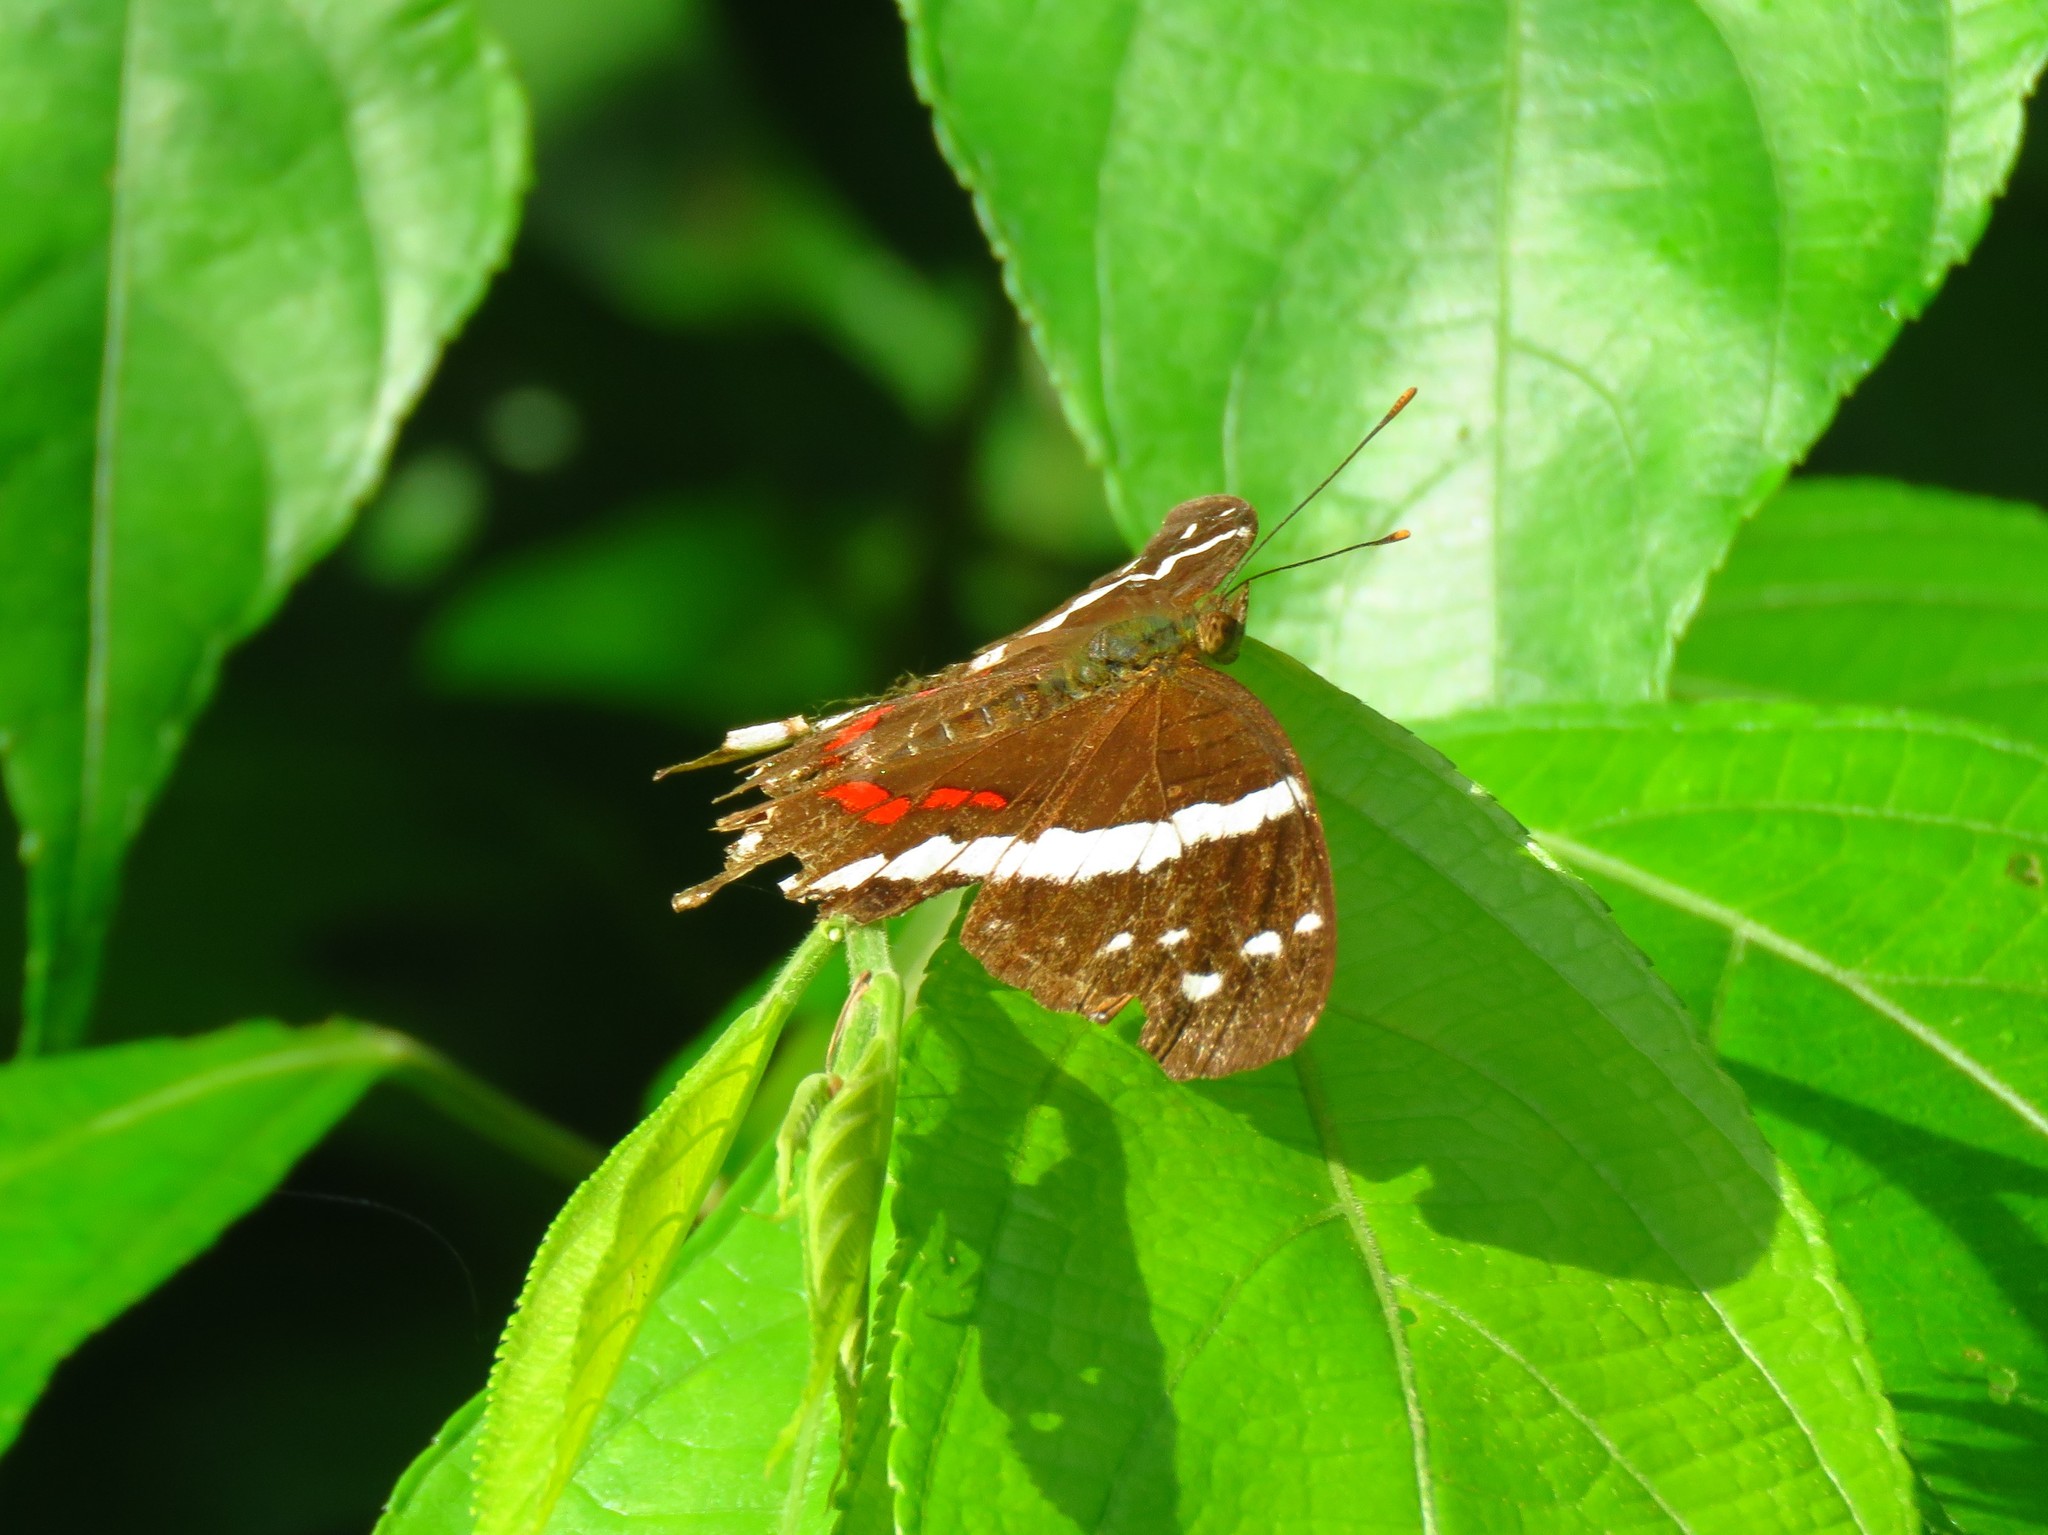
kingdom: Animalia
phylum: Arthropoda
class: Insecta
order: Lepidoptera
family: Nymphalidae
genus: Anartia
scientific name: Anartia fatima
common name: Banded peacock
